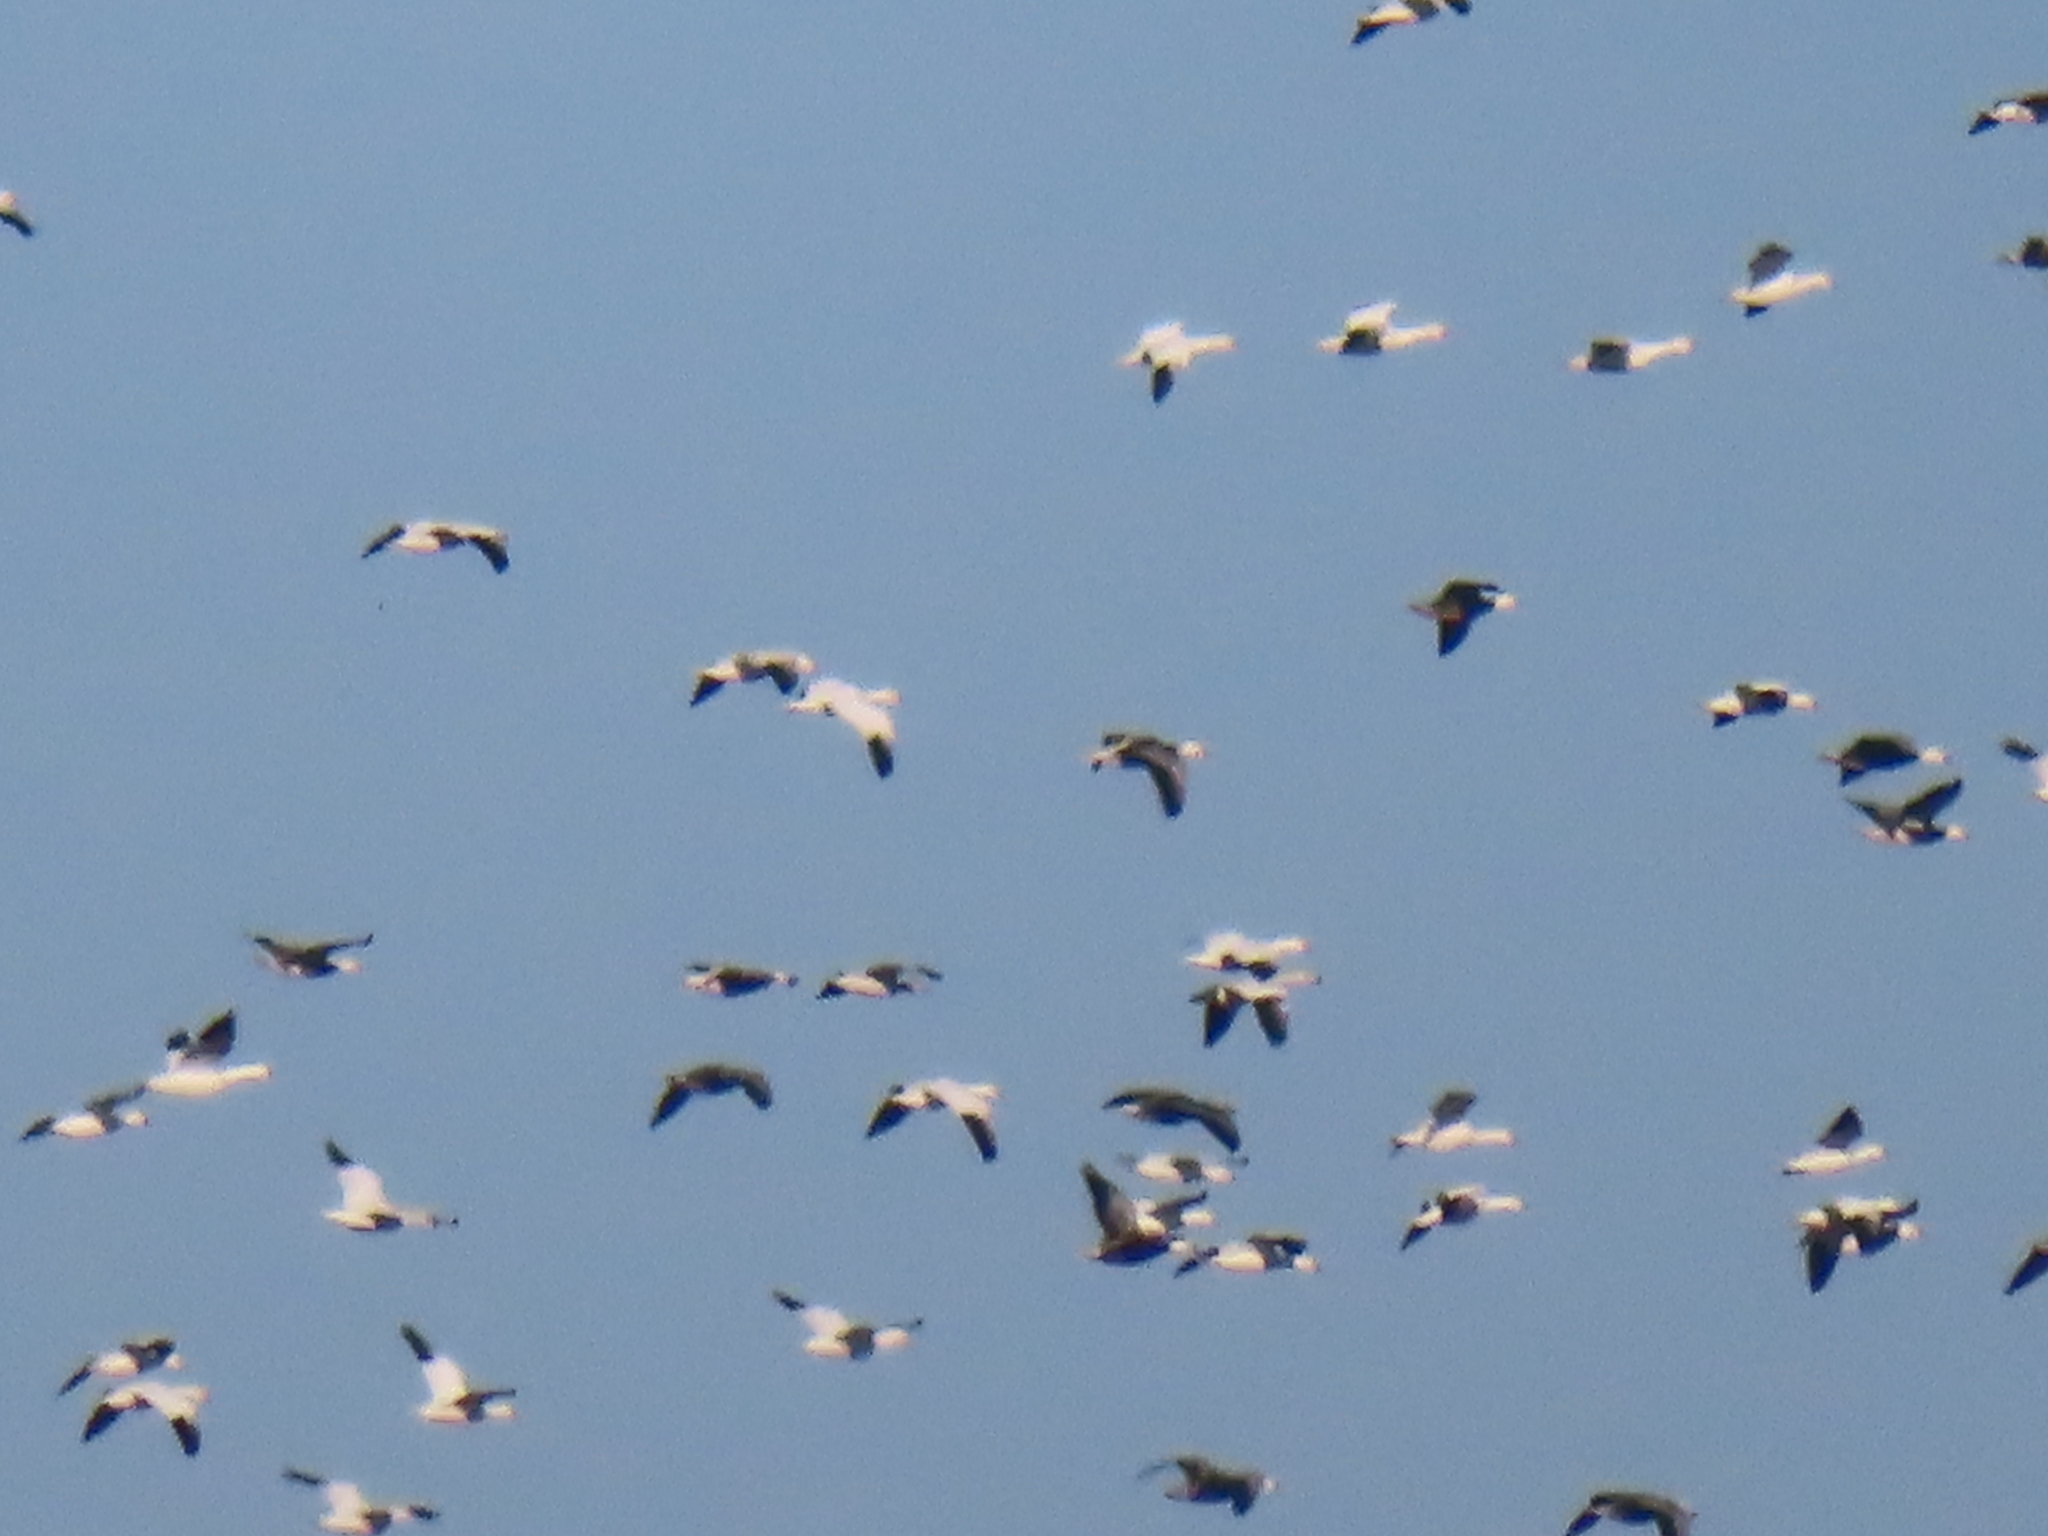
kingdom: Animalia
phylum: Chordata
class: Aves
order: Anseriformes
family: Anatidae
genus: Anser
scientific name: Anser caerulescens
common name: Snow goose
